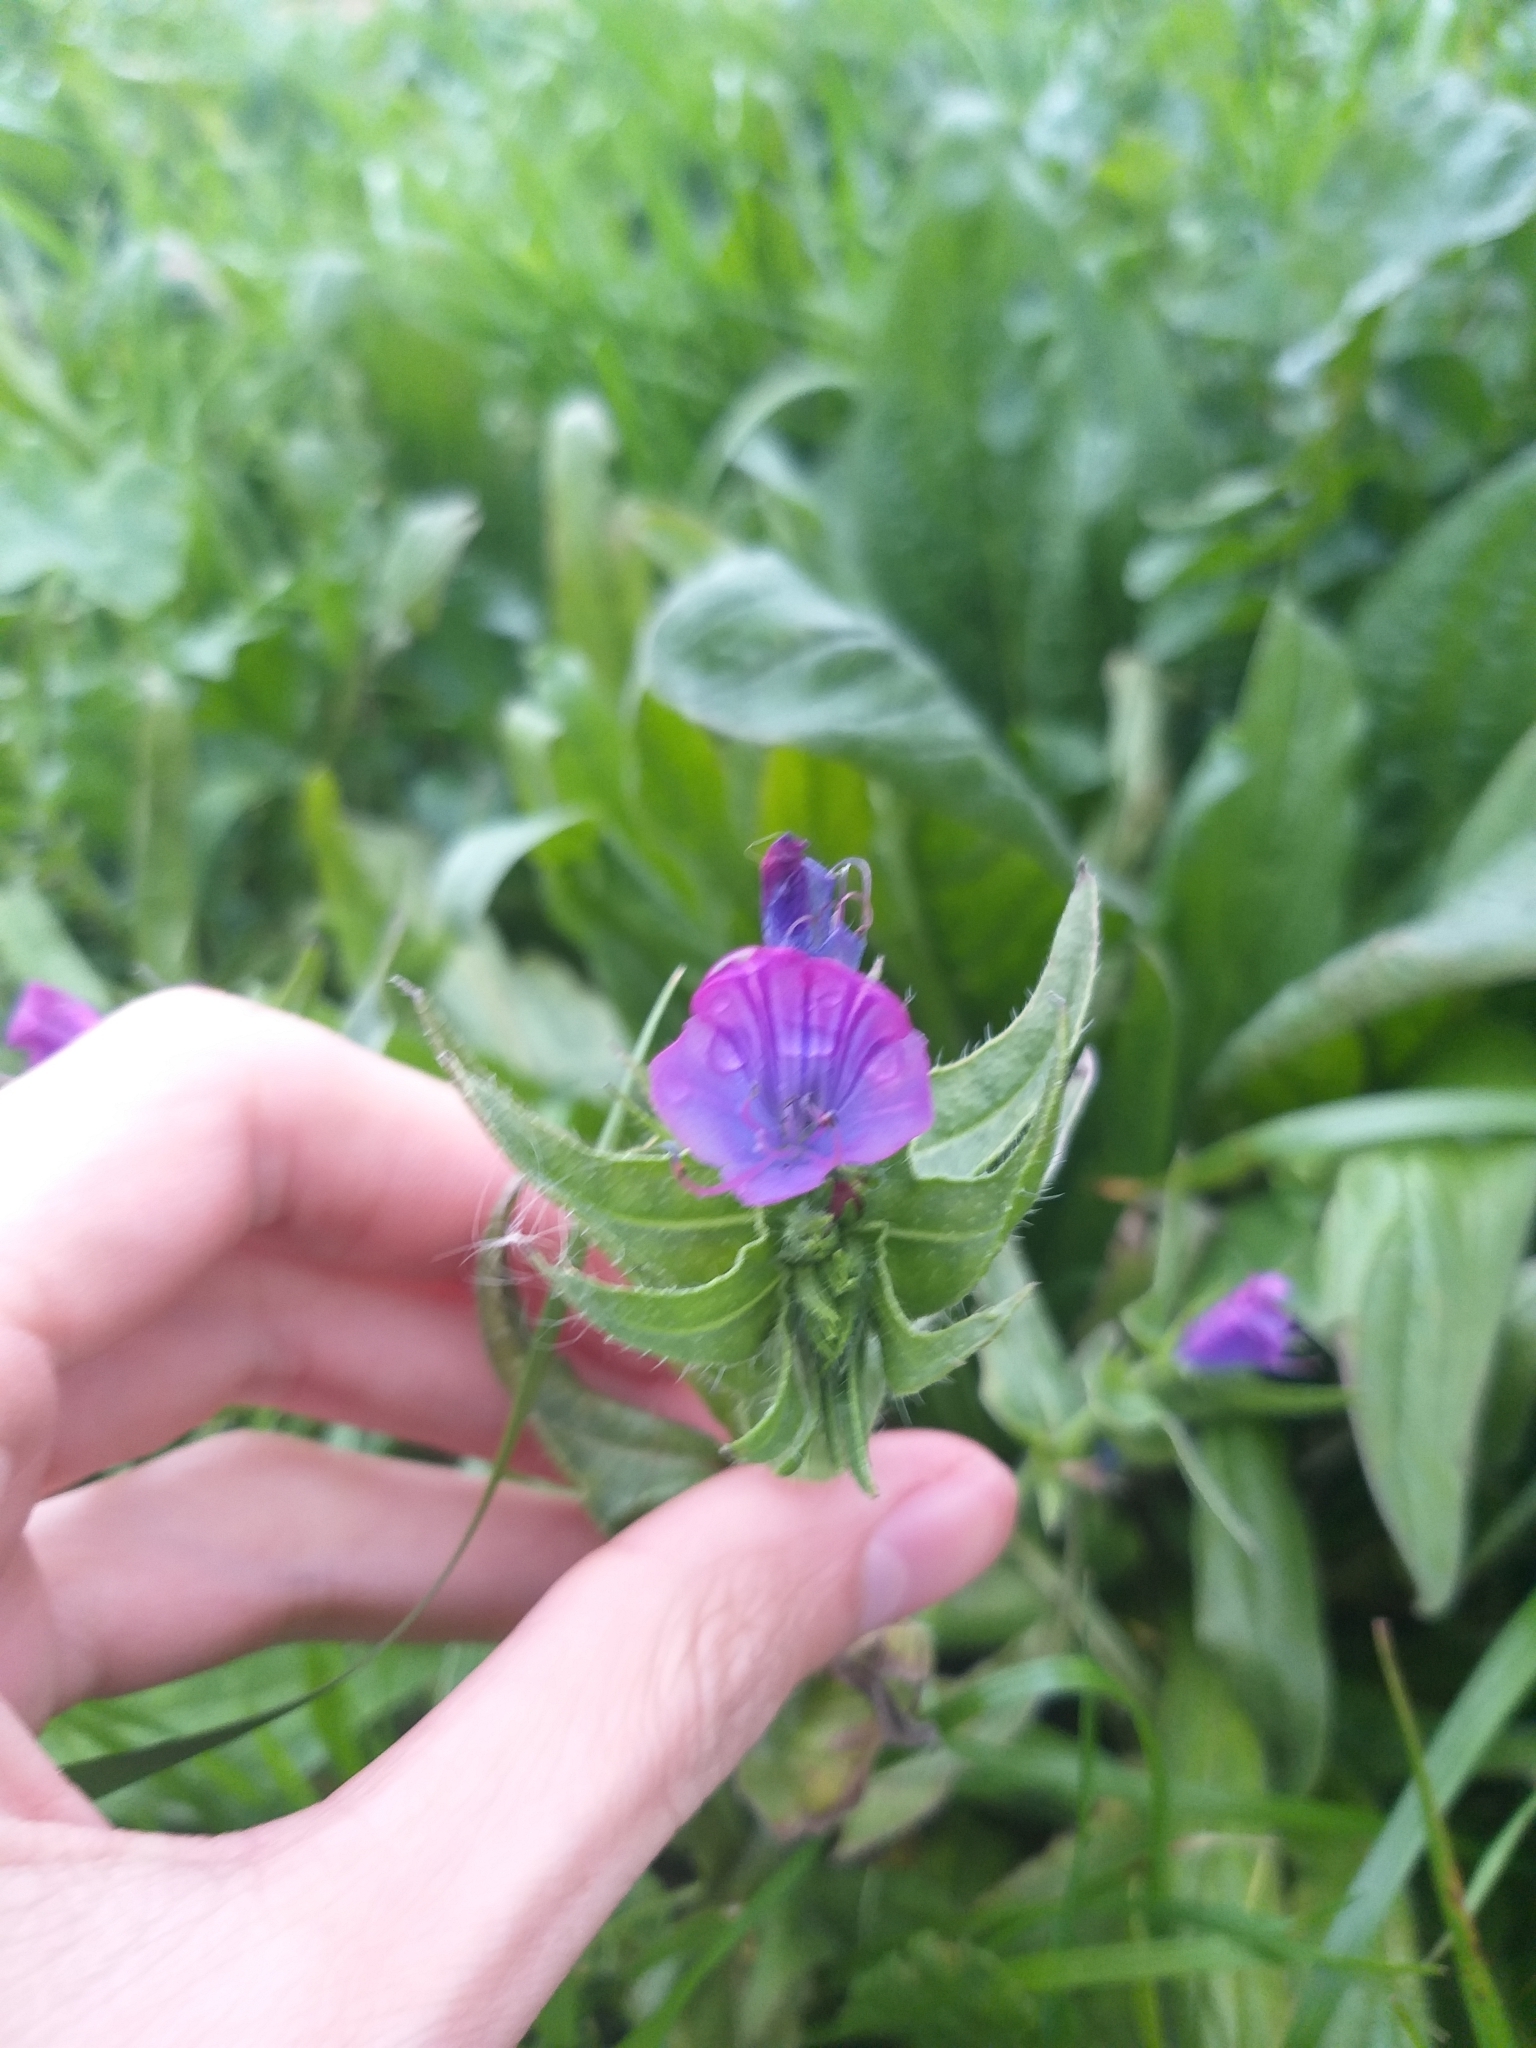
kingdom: Plantae
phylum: Tracheophyta
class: Magnoliopsida
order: Boraginales
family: Boraginaceae
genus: Echium
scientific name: Echium plantagineum
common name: Purple viper's-bugloss
